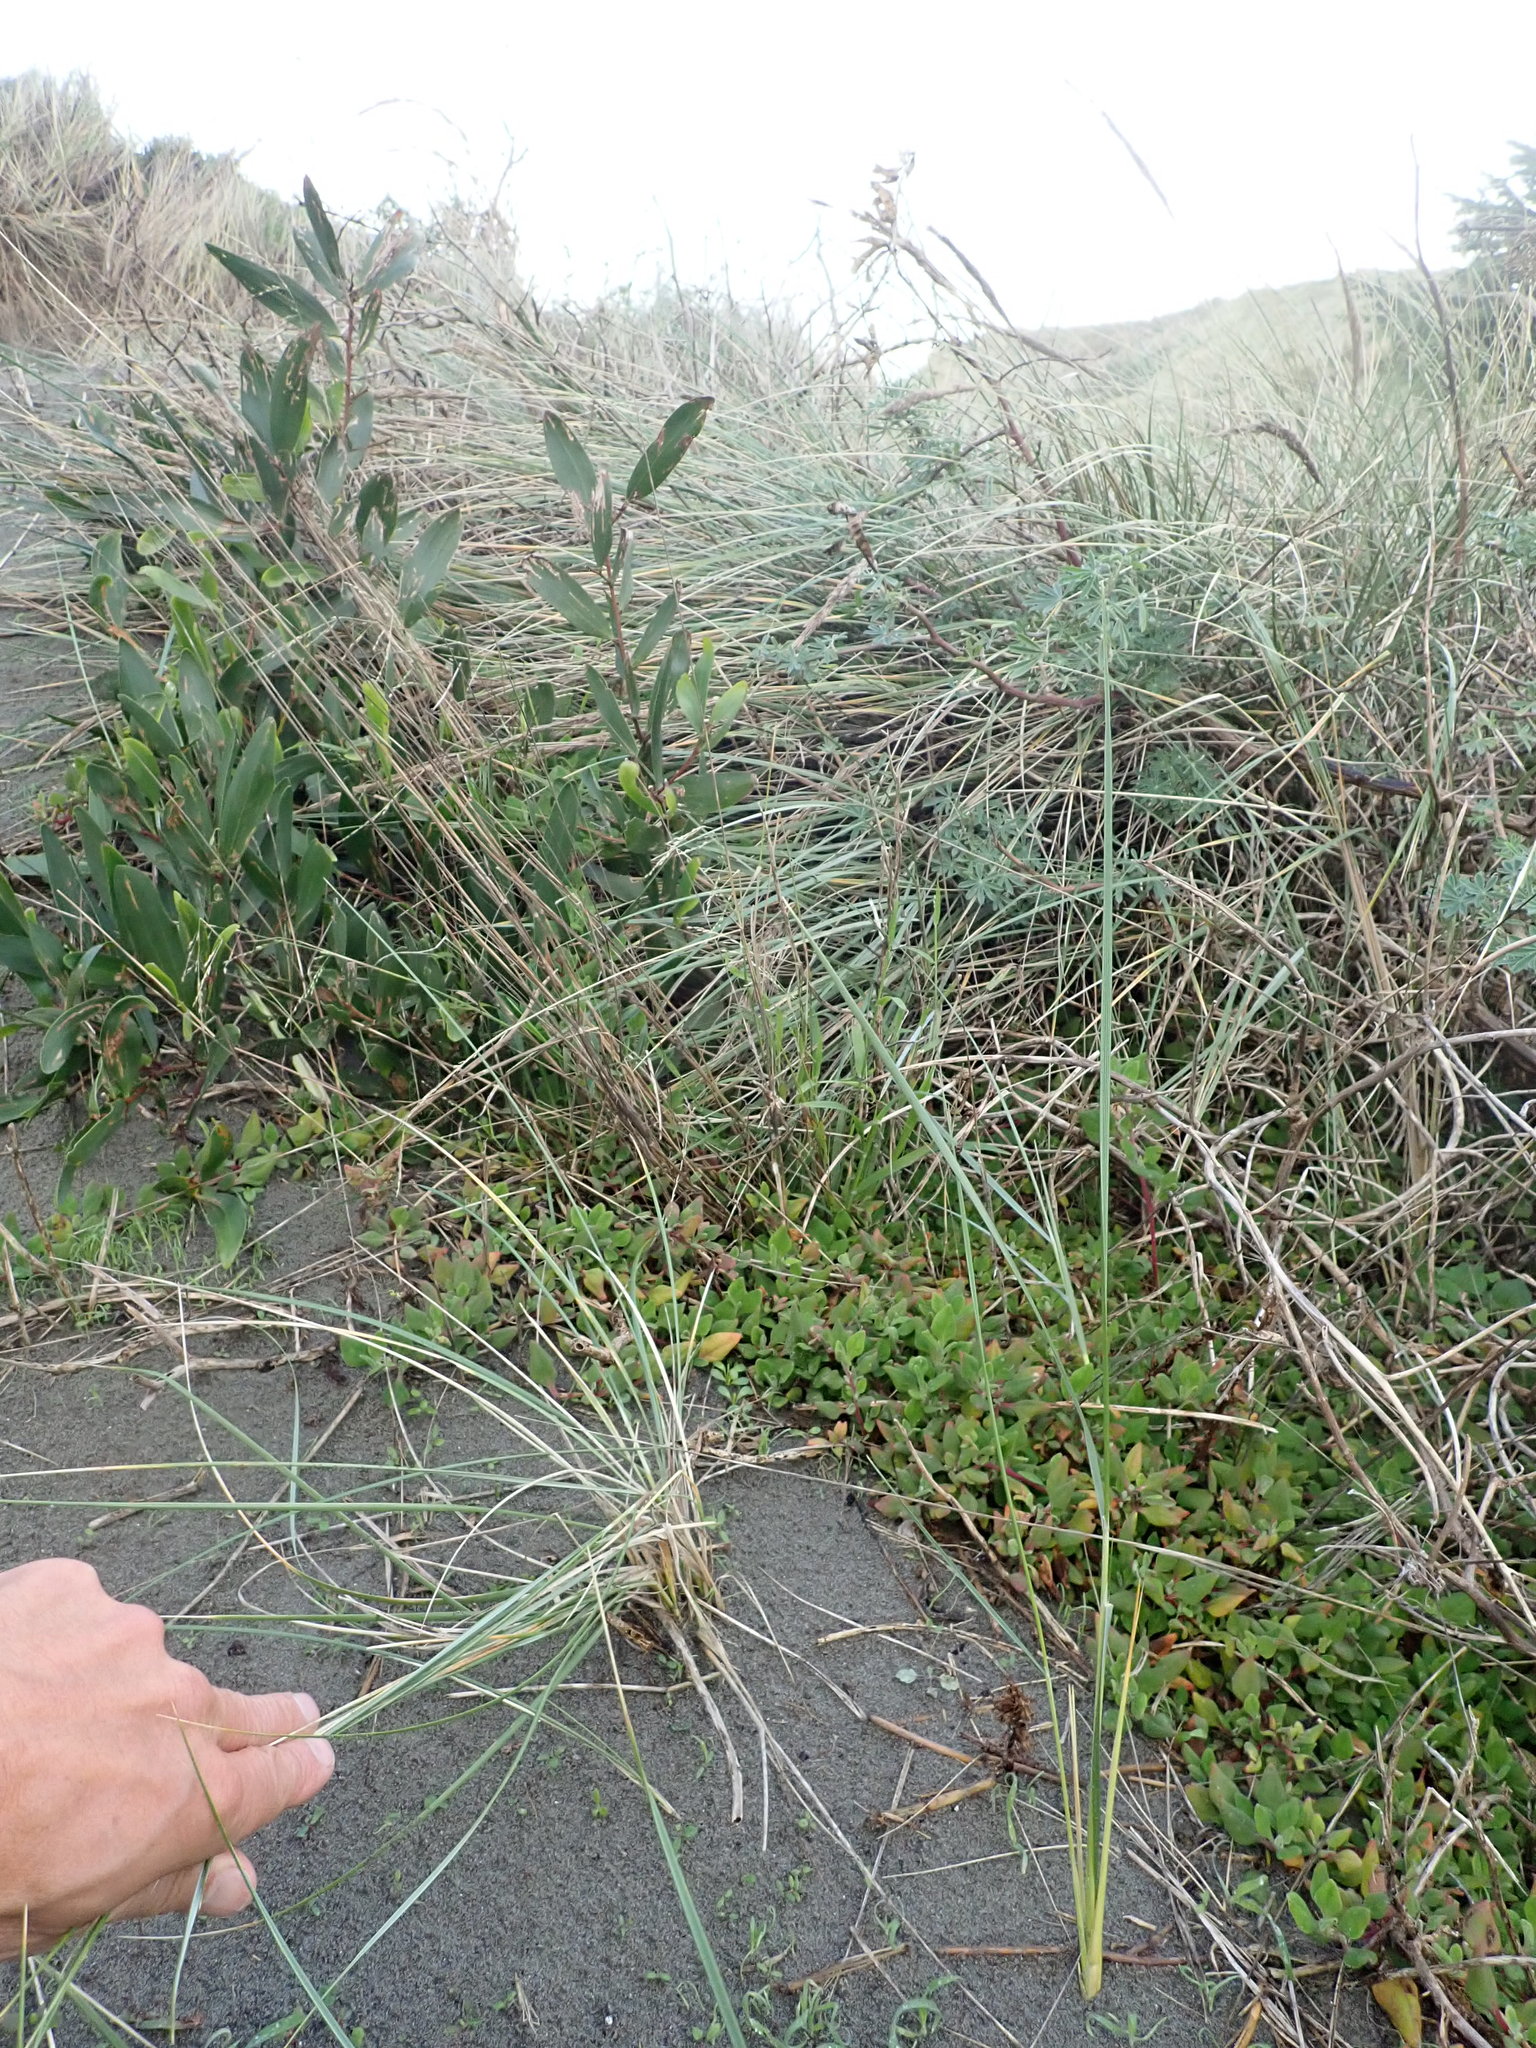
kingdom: Plantae
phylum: Tracheophyta
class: Magnoliopsida
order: Caryophyllales
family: Aizoaceae
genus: Tetragonia
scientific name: Tetragonia implexicoma
